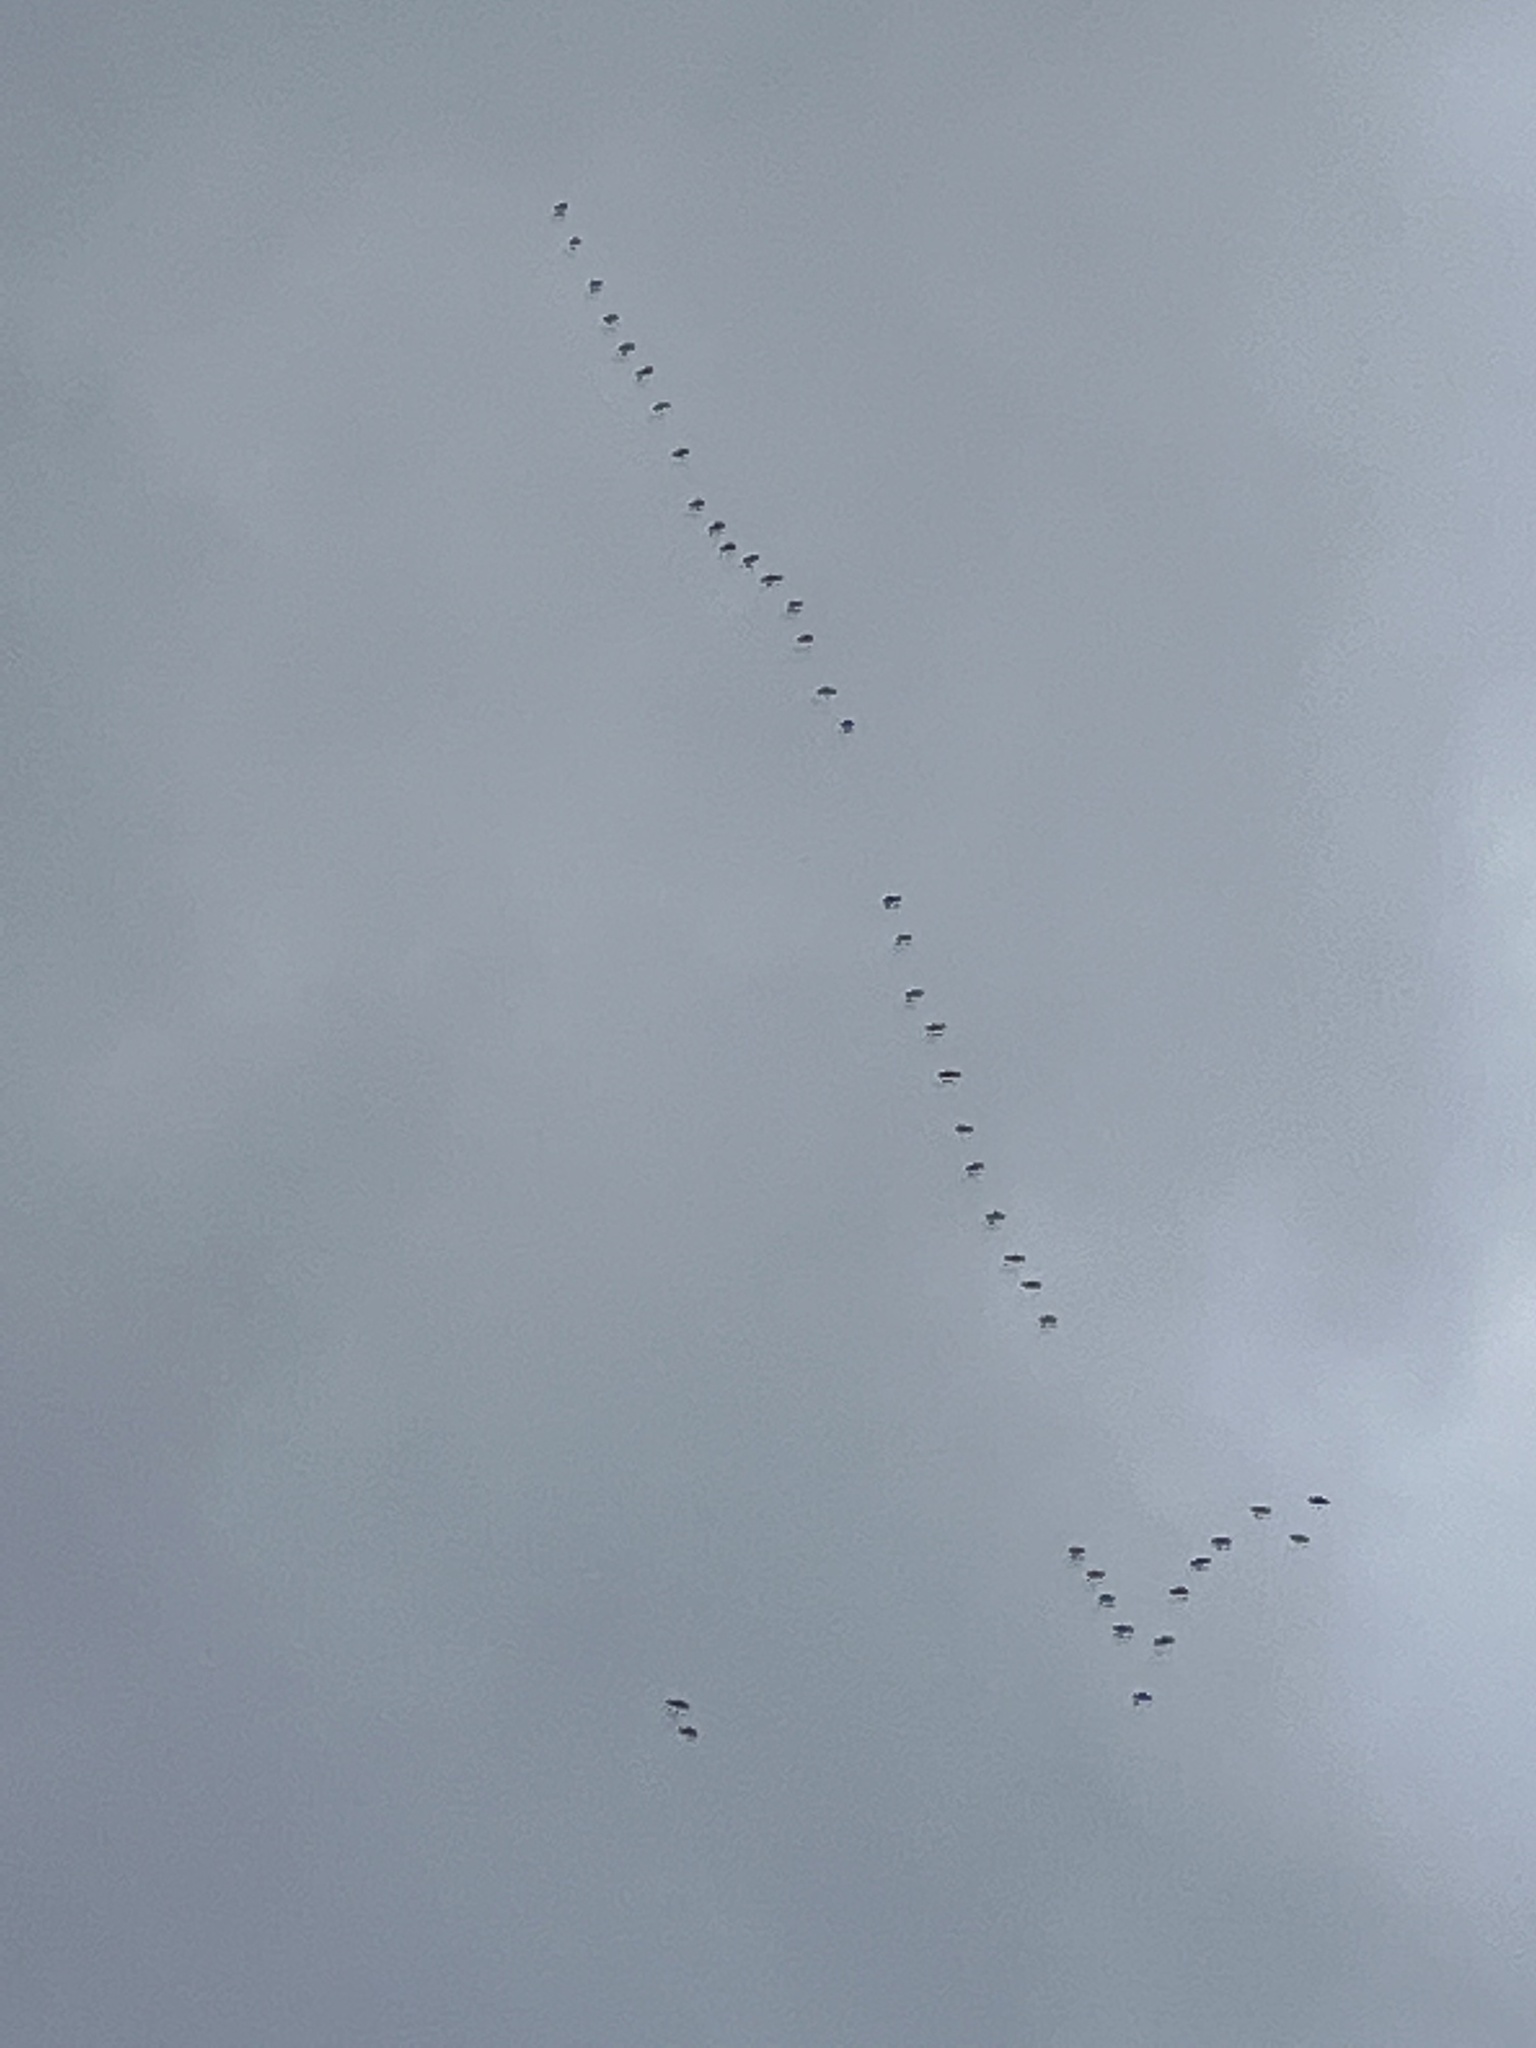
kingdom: Animalia
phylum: Chordata
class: Aves
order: Gruiformes
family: Gruidae
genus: Grus
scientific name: Grus canadensis
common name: Sandhill crane
